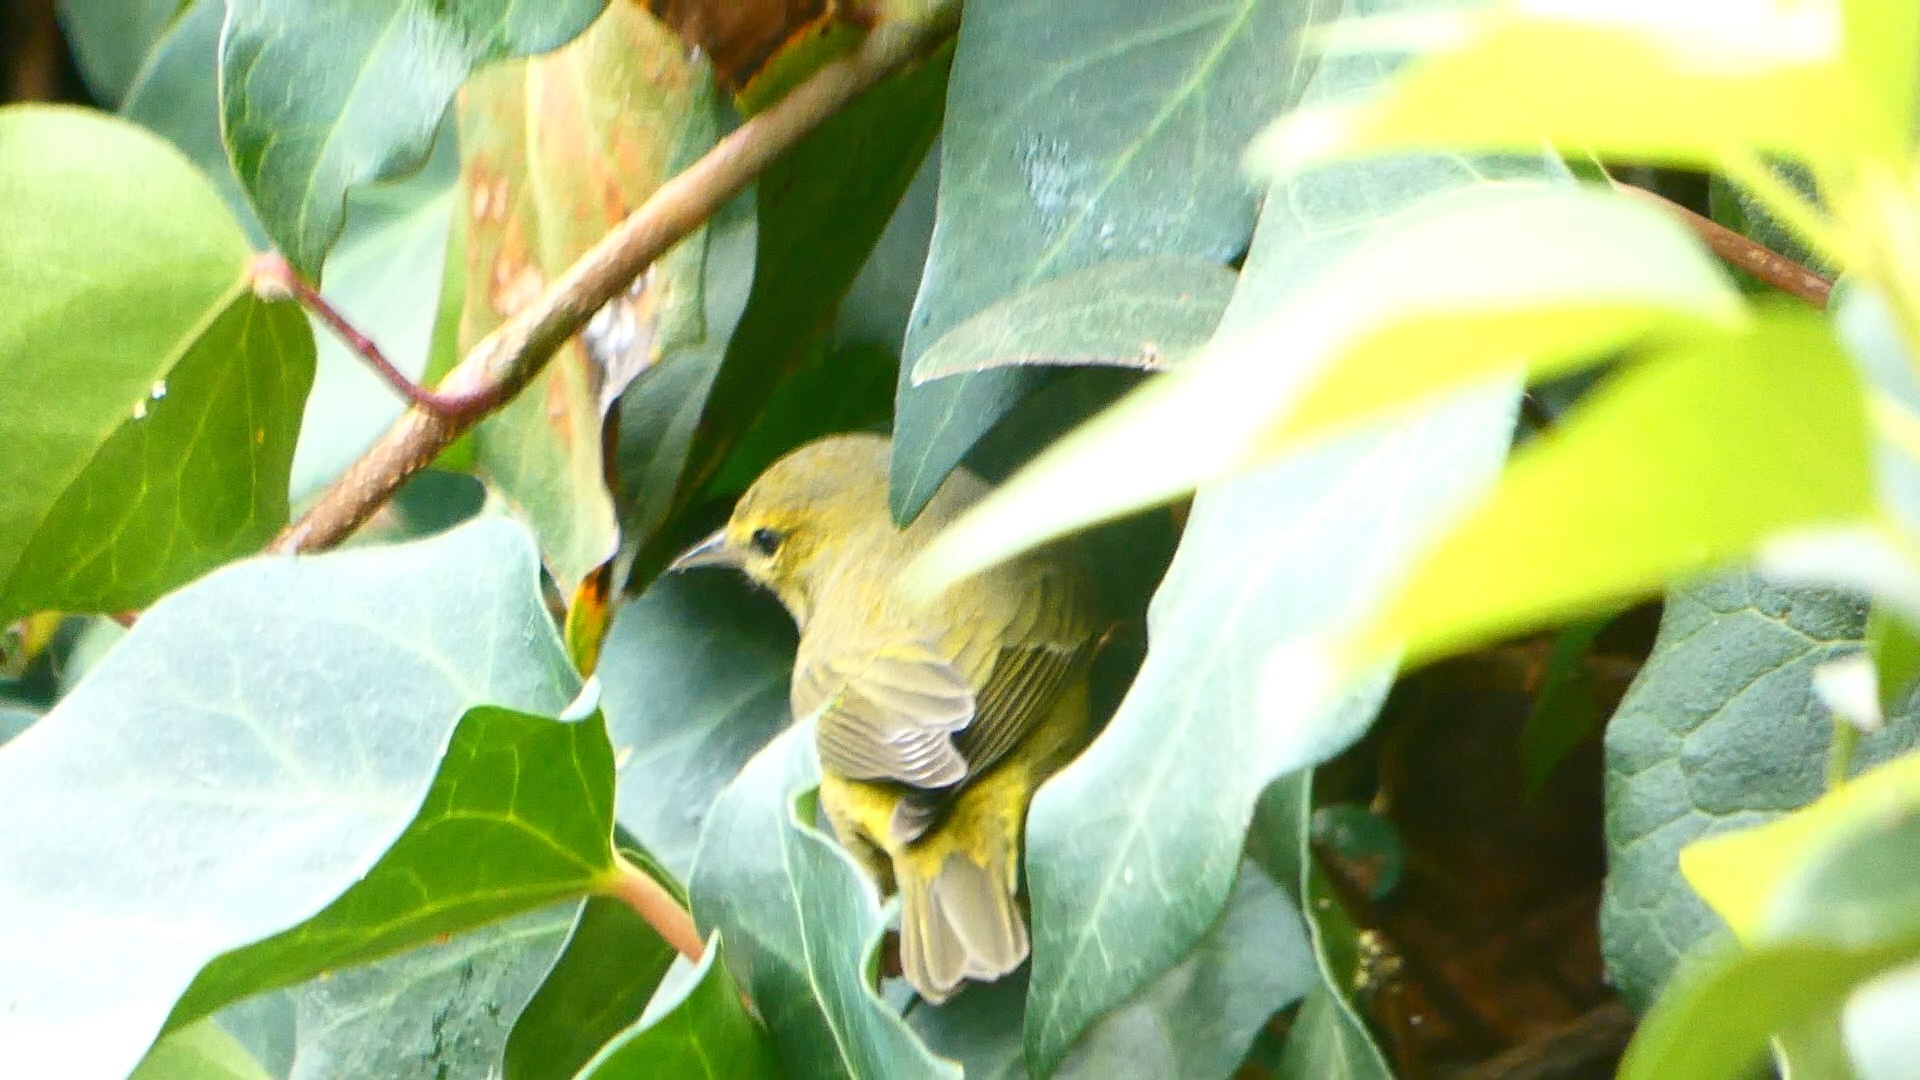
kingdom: Animalia
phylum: Chordata
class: Aves
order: Passeriformes
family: Parulidae
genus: Leiothlypis
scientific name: Leiothlypis celata
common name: Orange-crowned warbler
